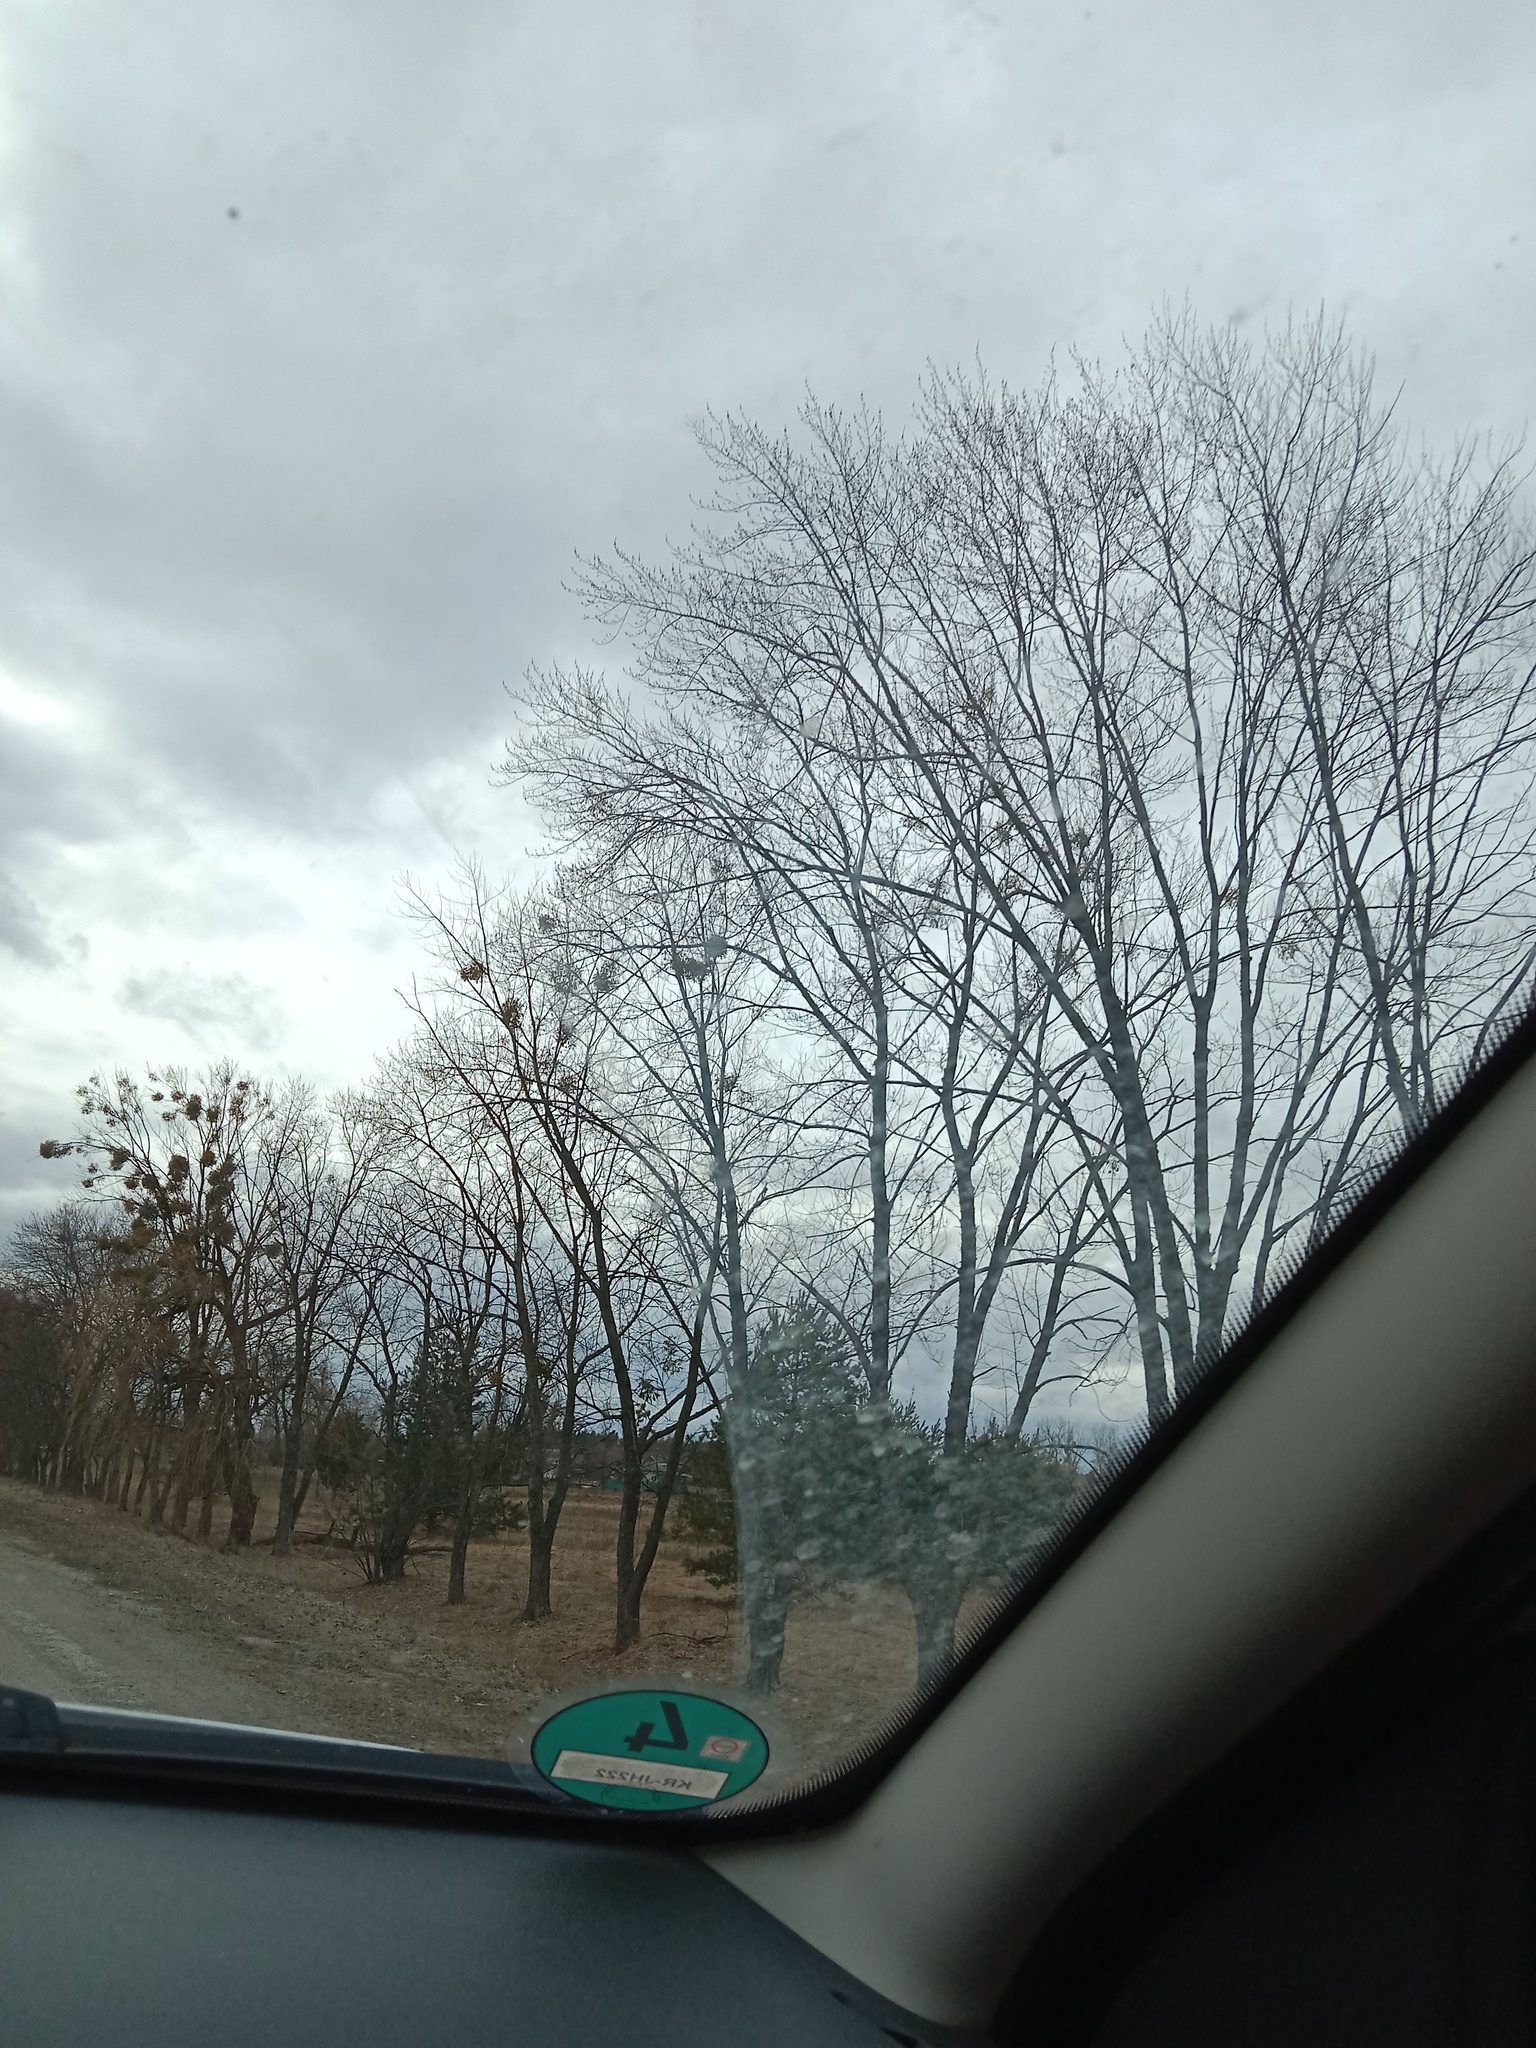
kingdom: Plantae
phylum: Tracheophyta
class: Magnoliopsida
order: Santalales
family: Viscaceae
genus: Viscum
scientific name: Viscum album
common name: Mistletoe
